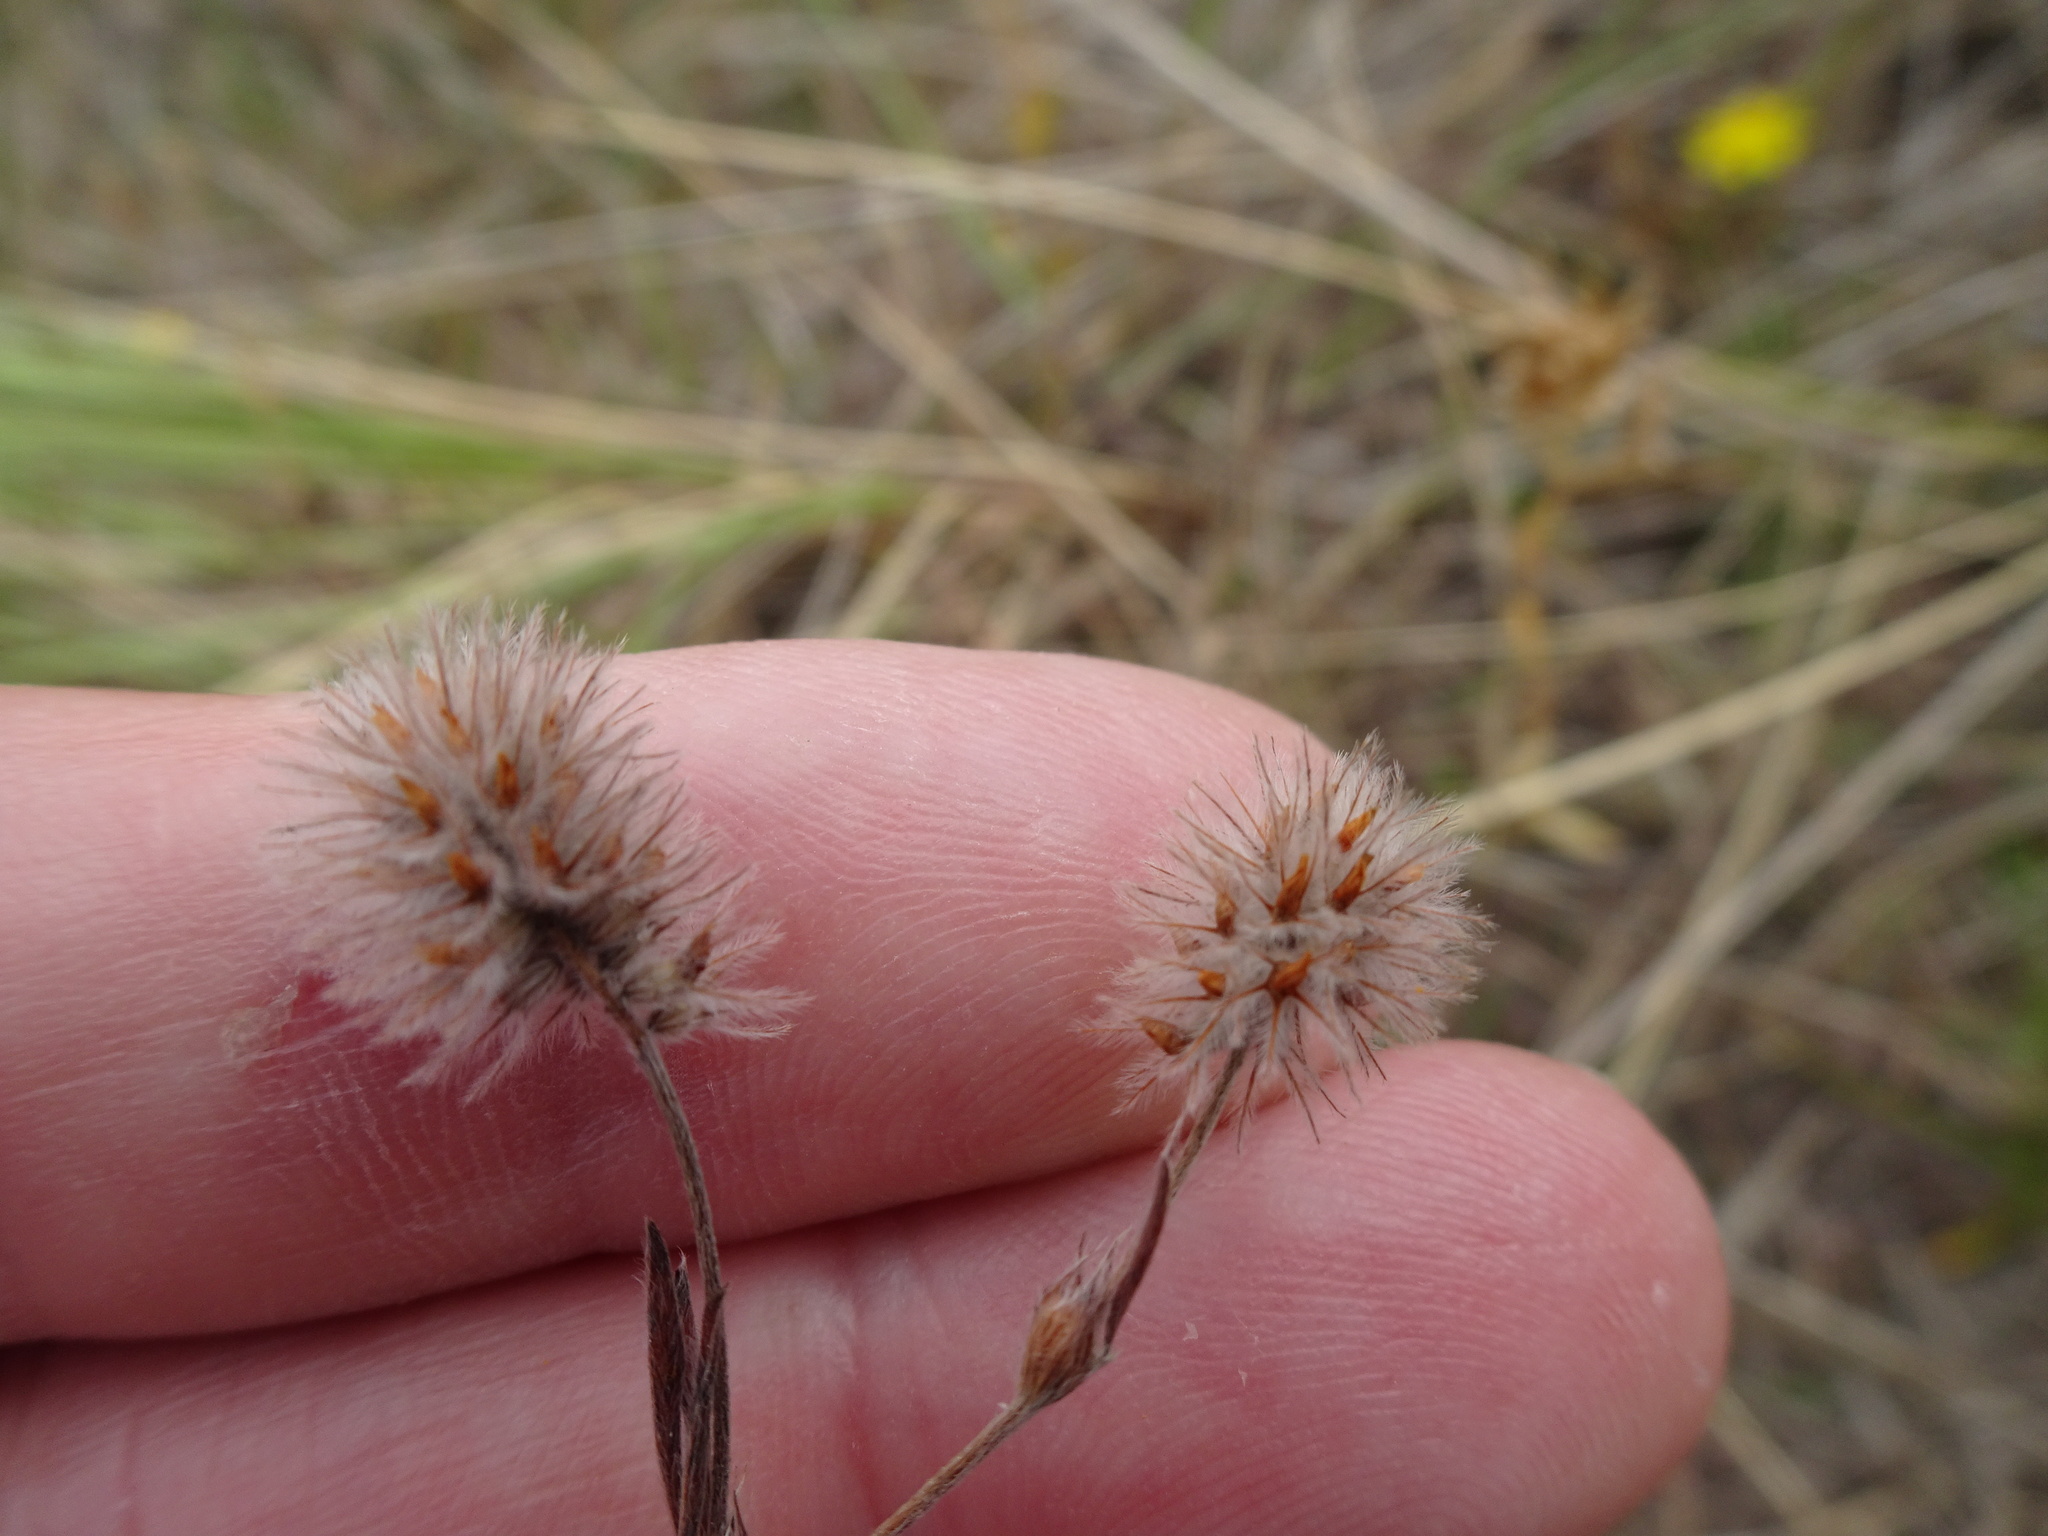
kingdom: Plantae
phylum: Tracheophyta
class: Magnoliopsida
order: Fabales
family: Fabaceae
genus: Trifolium
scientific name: Trifolium arvense
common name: Hare's-foot clover
